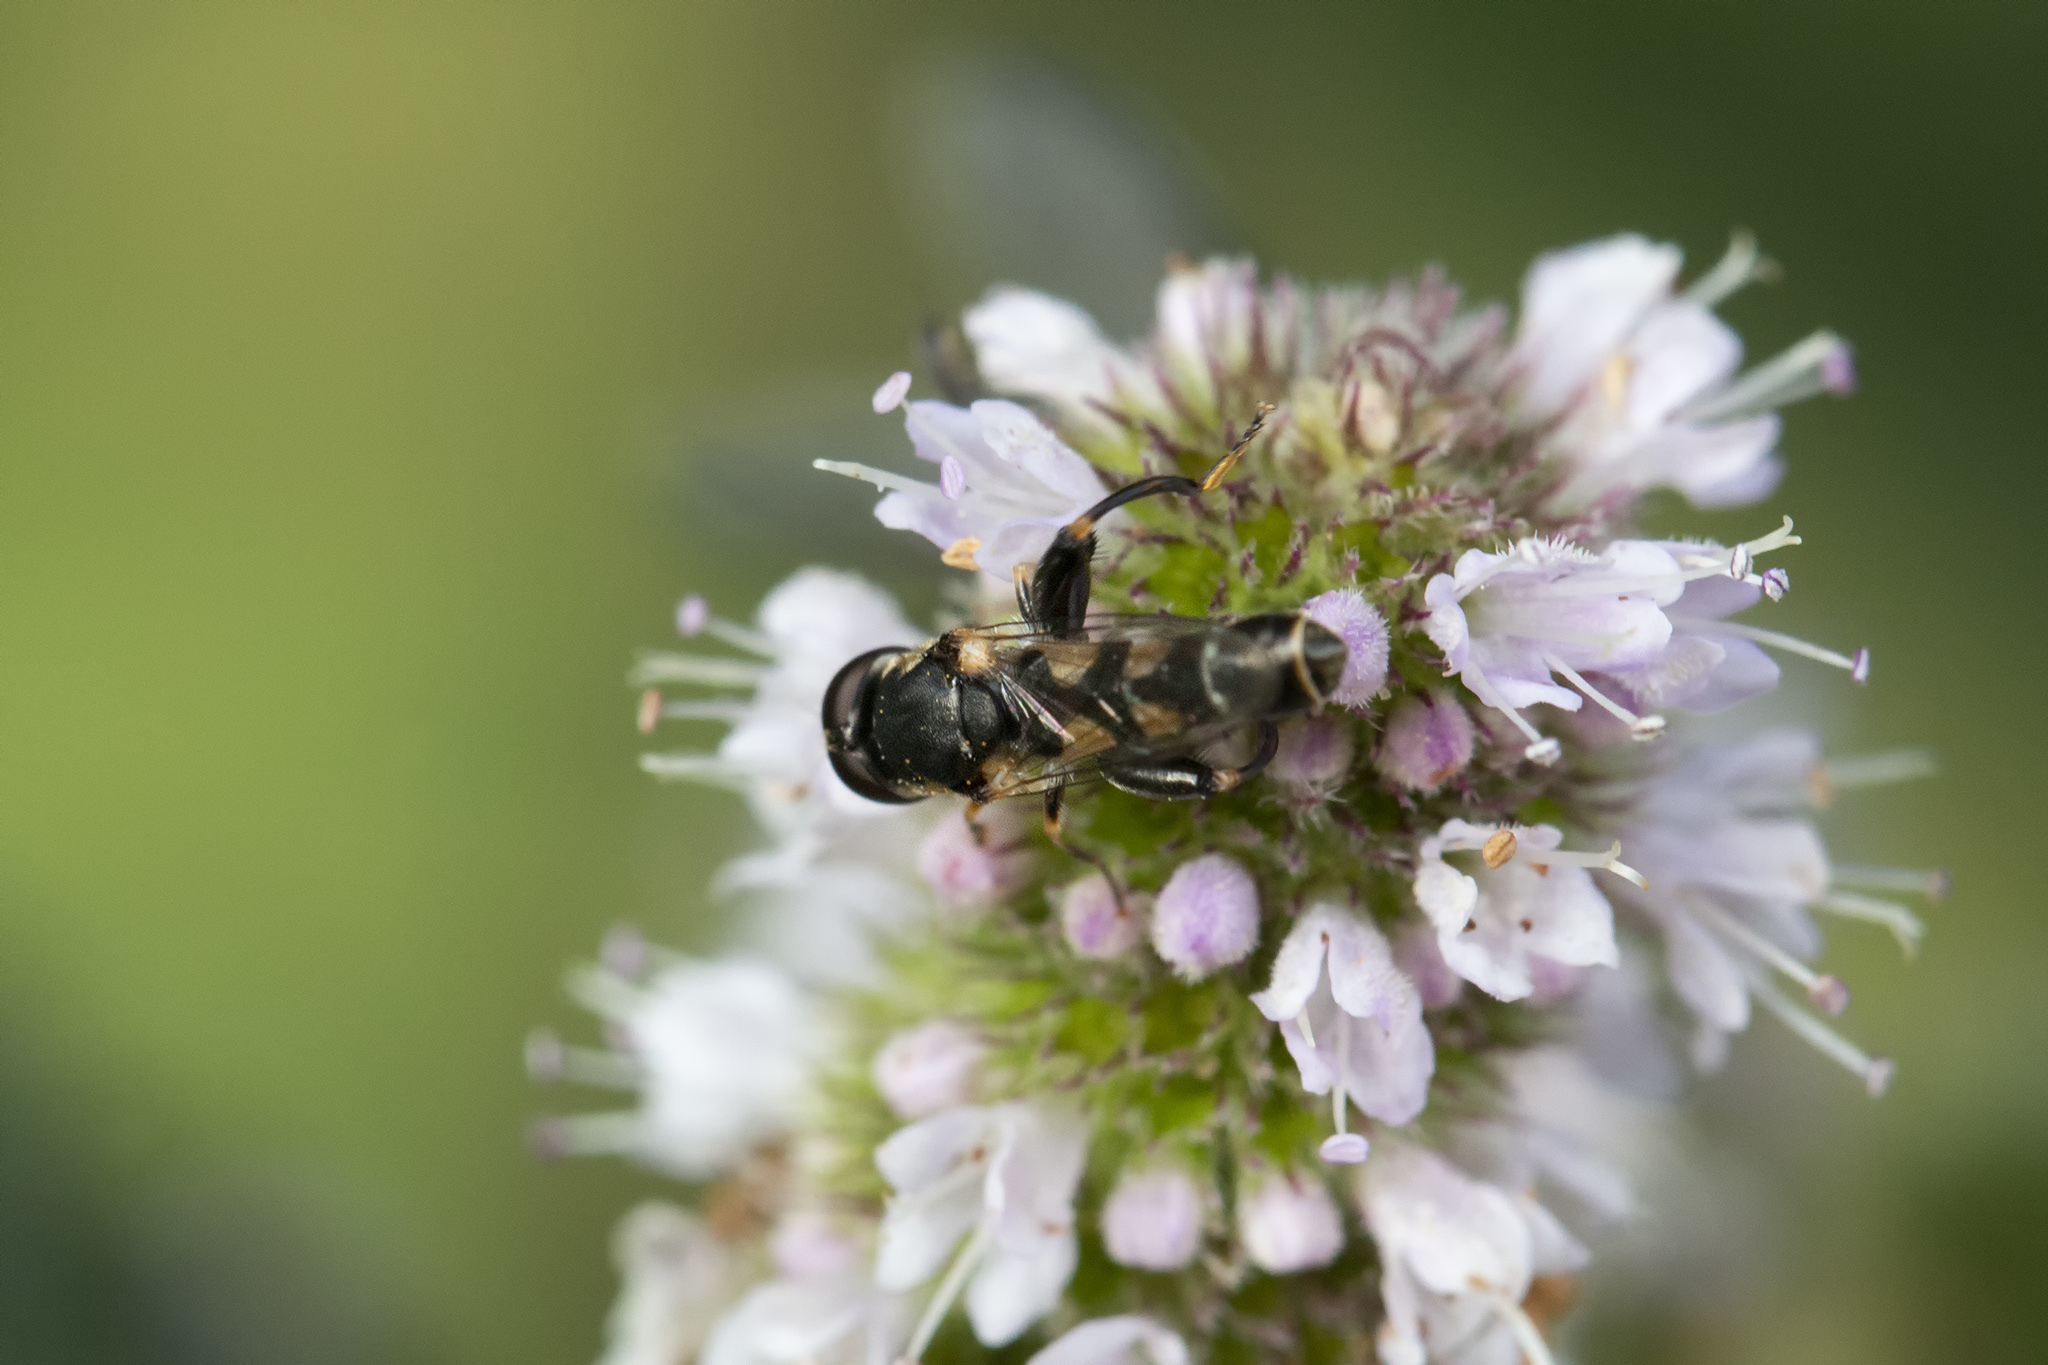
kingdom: Animalia
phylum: Arthropoda
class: Insecta
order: Diptera
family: Syrphidae
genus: Syritta
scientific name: Syritta pipiens
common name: Hover fly
